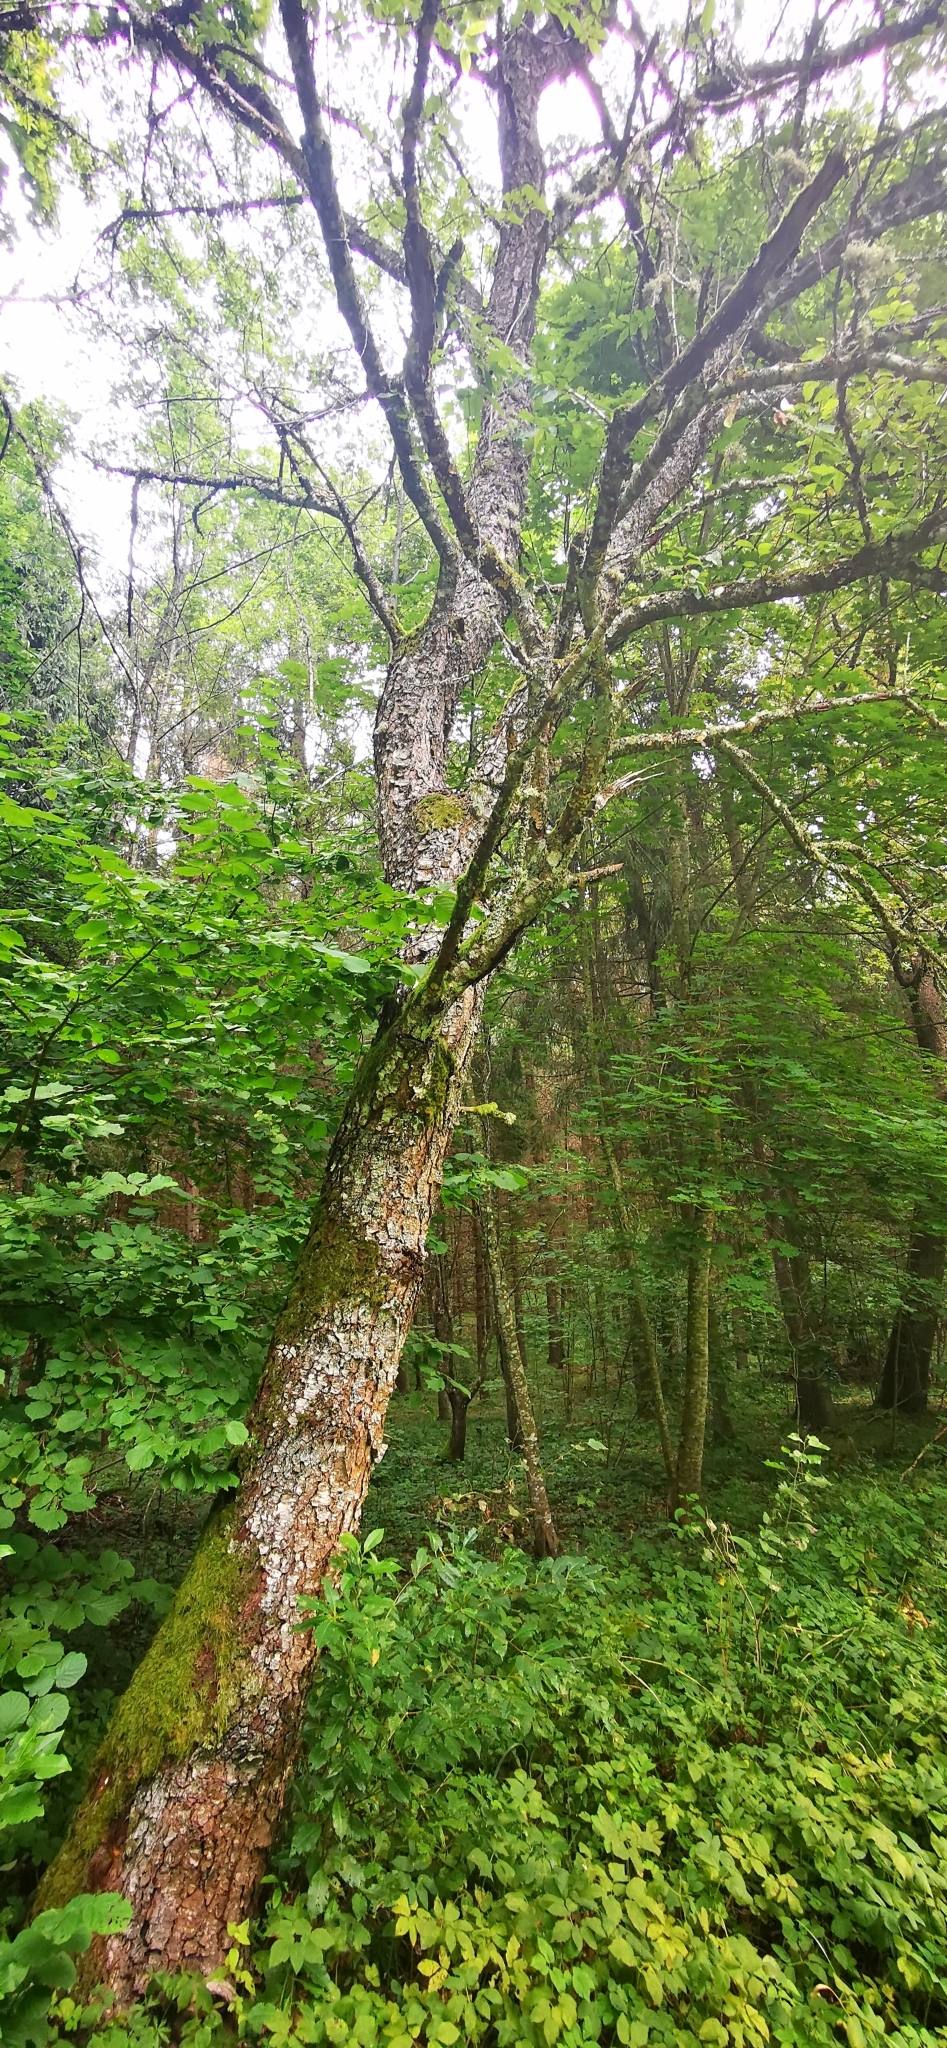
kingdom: Plantae
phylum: Tracheophyta
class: Magnoliopsida
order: Rosales
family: Rosaceae
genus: Prunus
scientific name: Prunus serotina
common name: Black cherry
